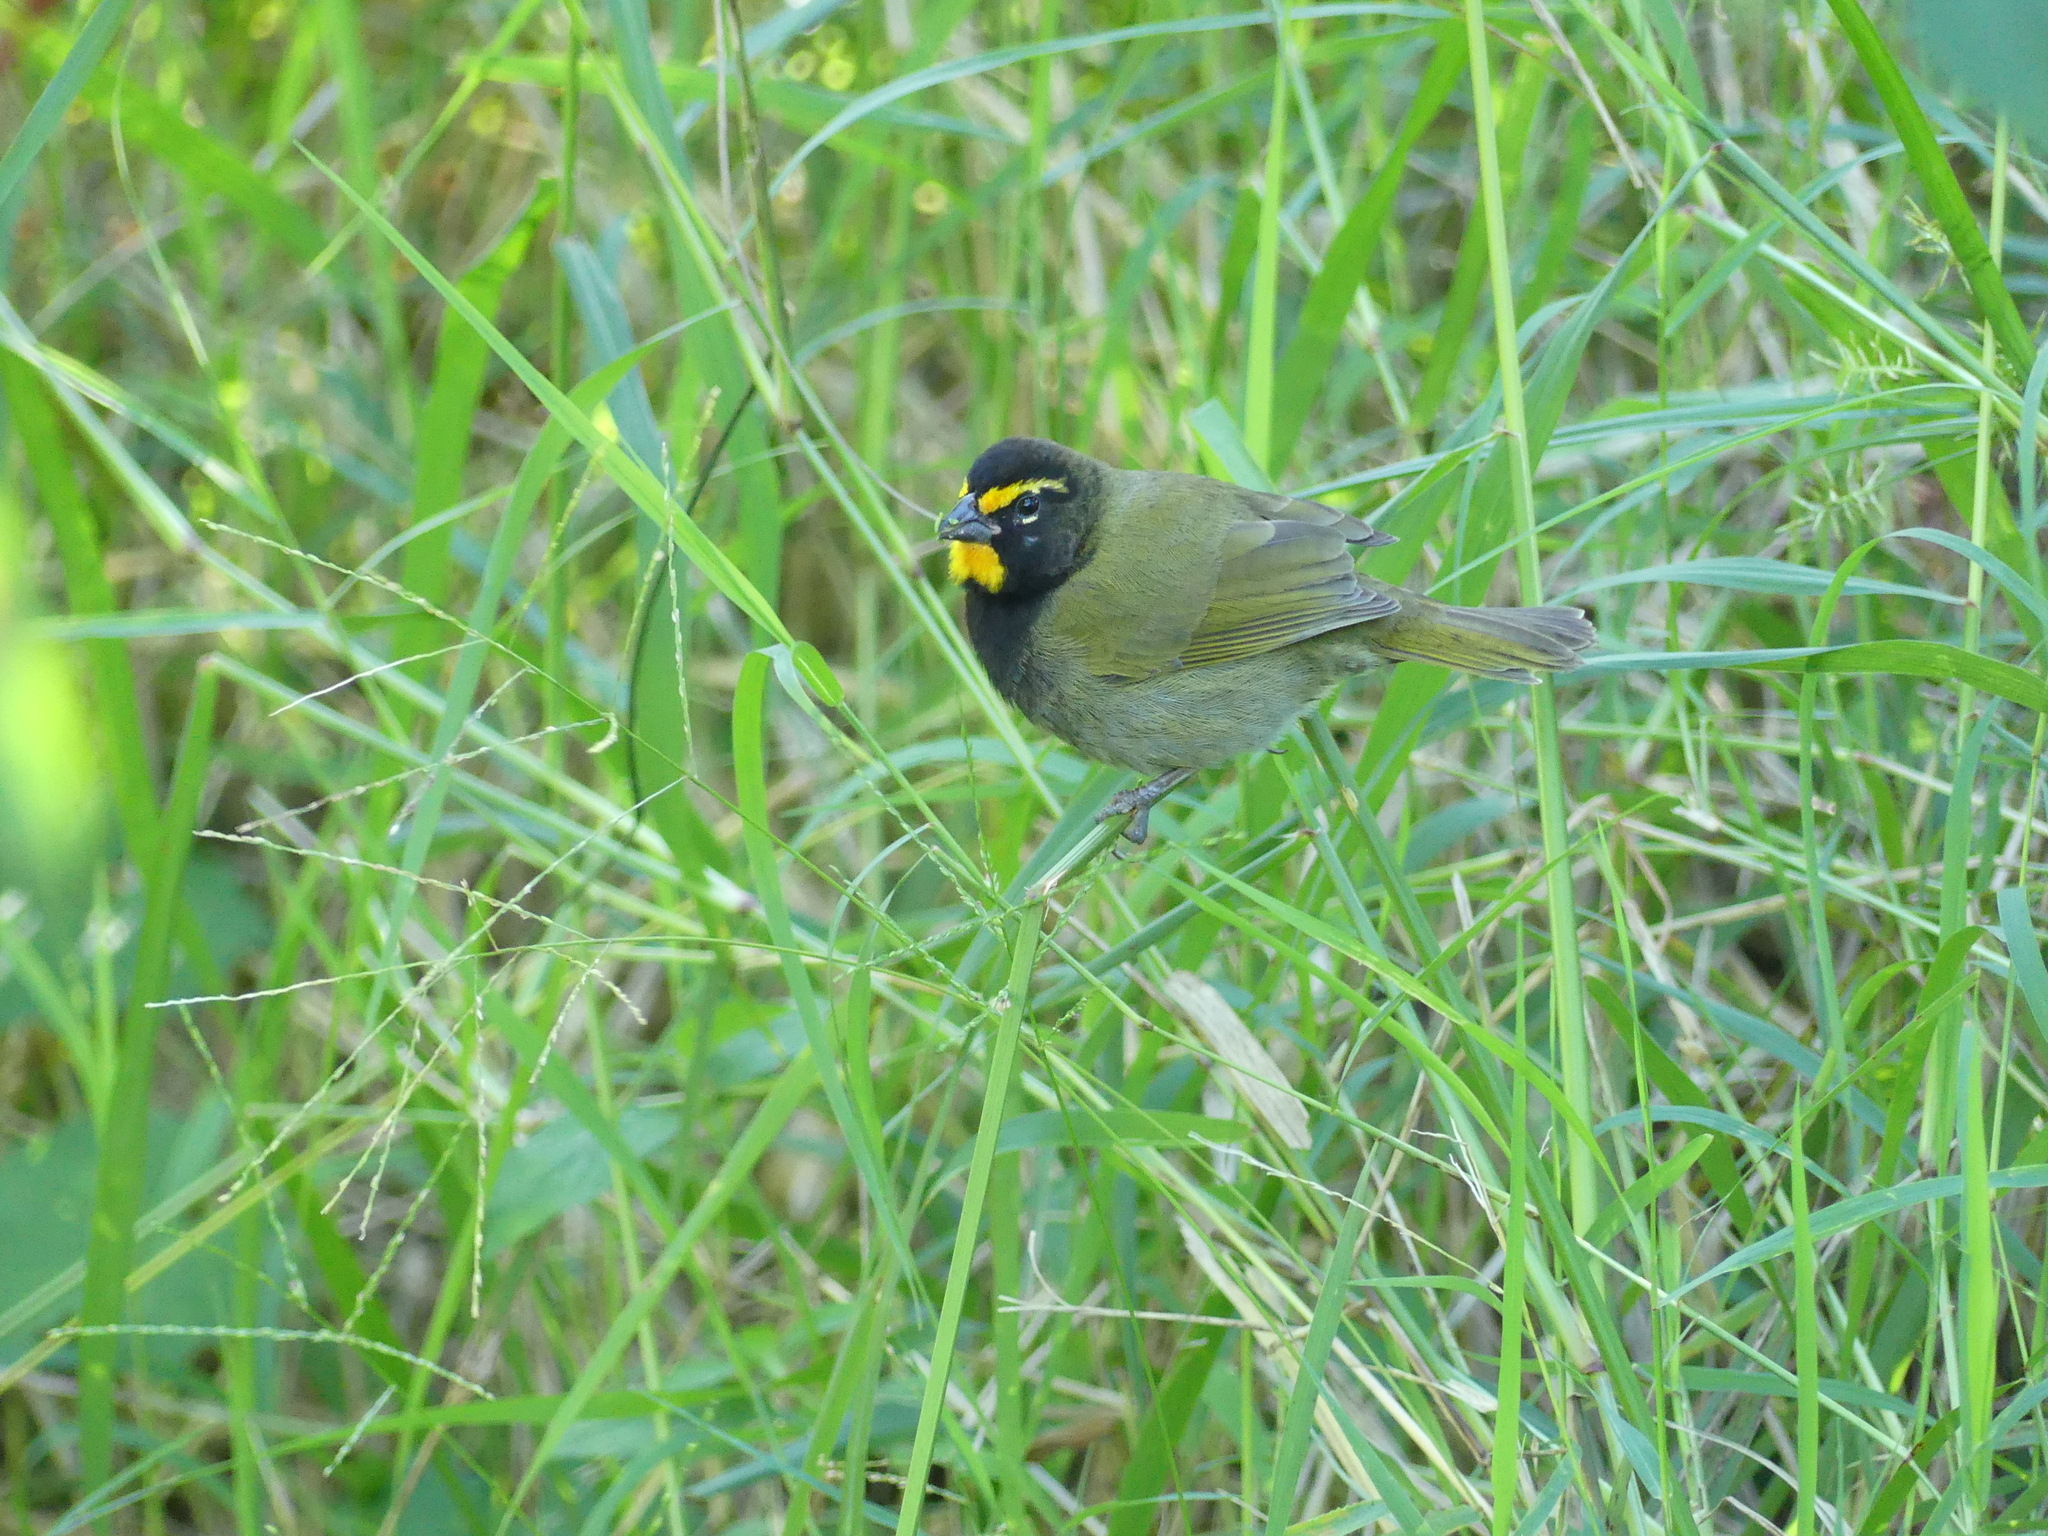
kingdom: Animalia
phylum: Chordata
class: Aves
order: Passeriformes
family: Thraupidae
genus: Tiaris
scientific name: Tiaris olivaceus
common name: Yellow-faced grassquit
